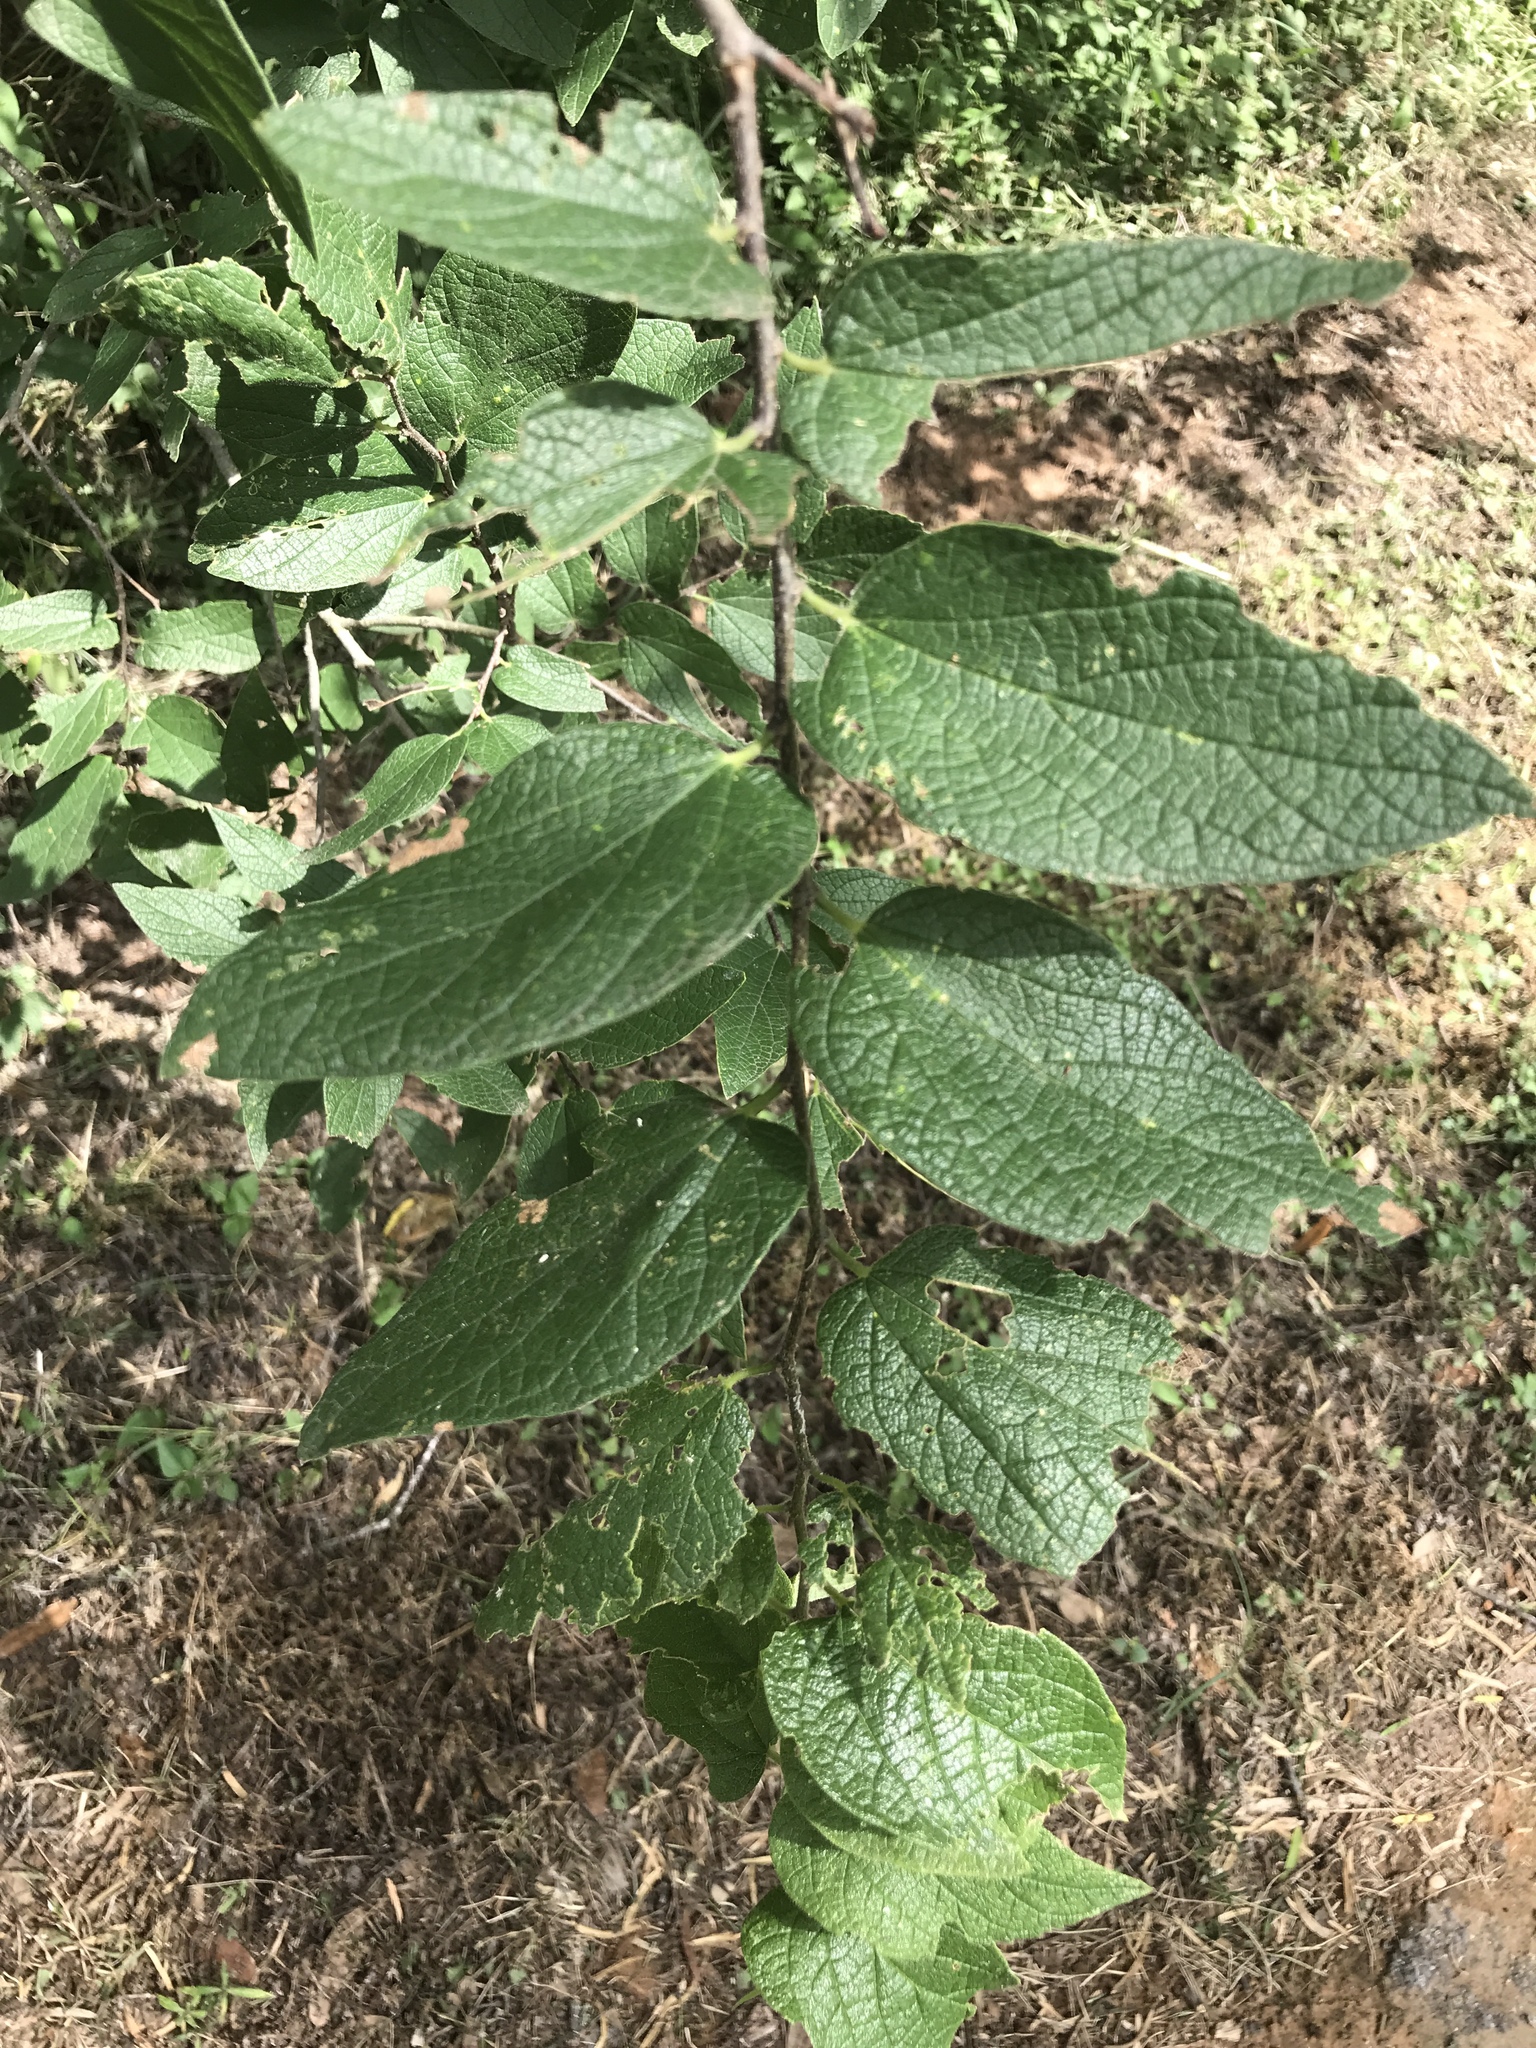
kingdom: Plantae
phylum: Tracheophyta
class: Magnoliopsida
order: Rosales
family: Cannabaceae
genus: Celtis
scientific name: Celtis reticulata
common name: Netleaf hackberry
